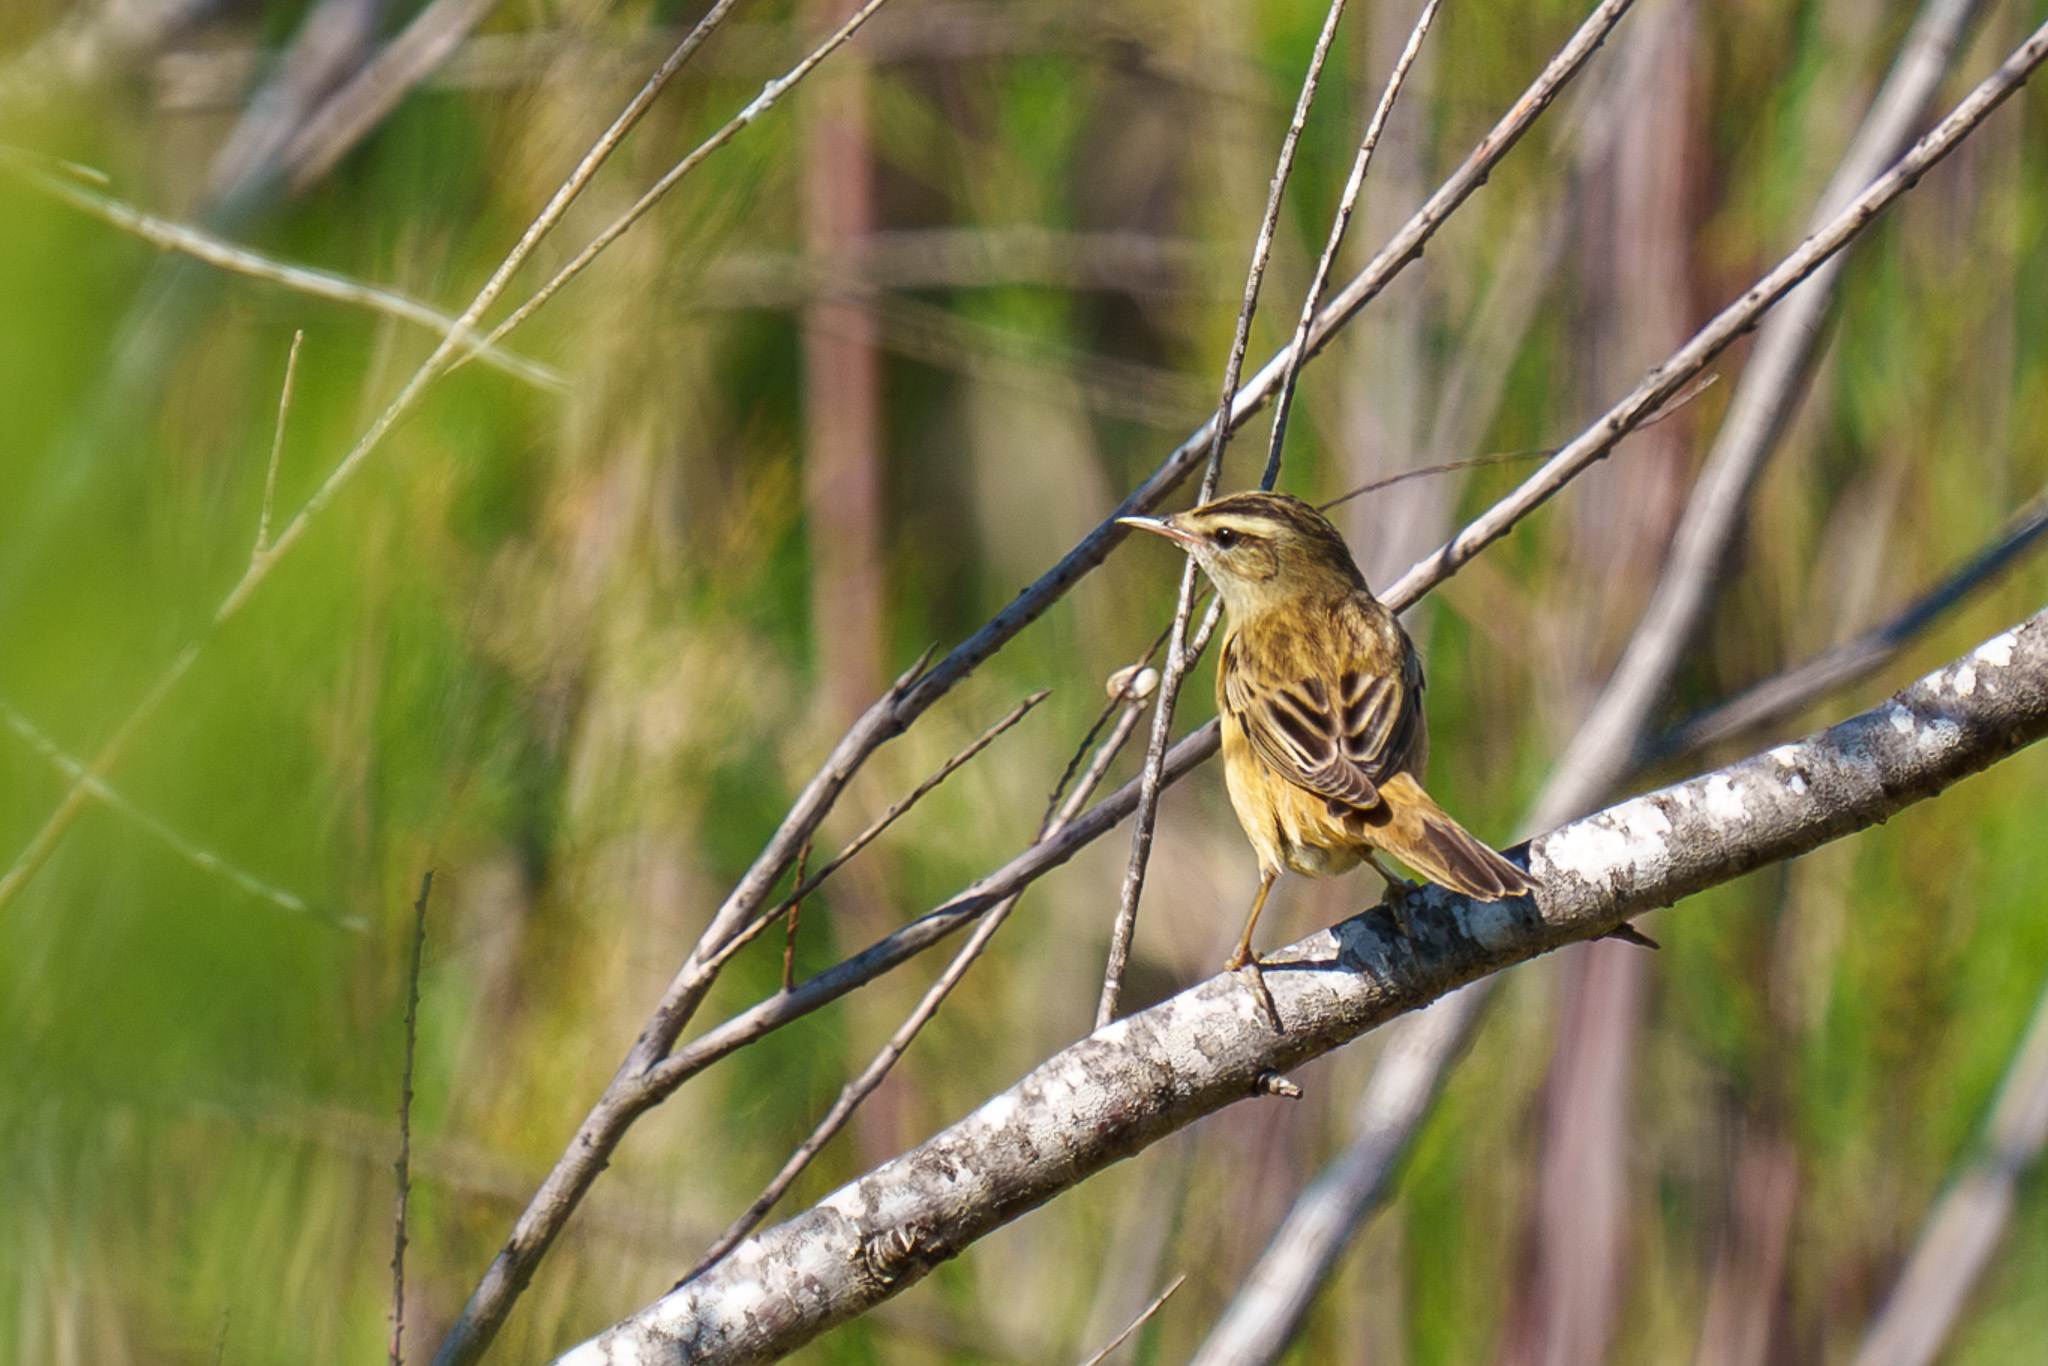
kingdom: Animalia
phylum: Chordata
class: Aves
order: Passeriformes
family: Acrocephalidae
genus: Acrocephalus
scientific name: Acrocephalus schoenobaenus
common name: Sedge warbler
